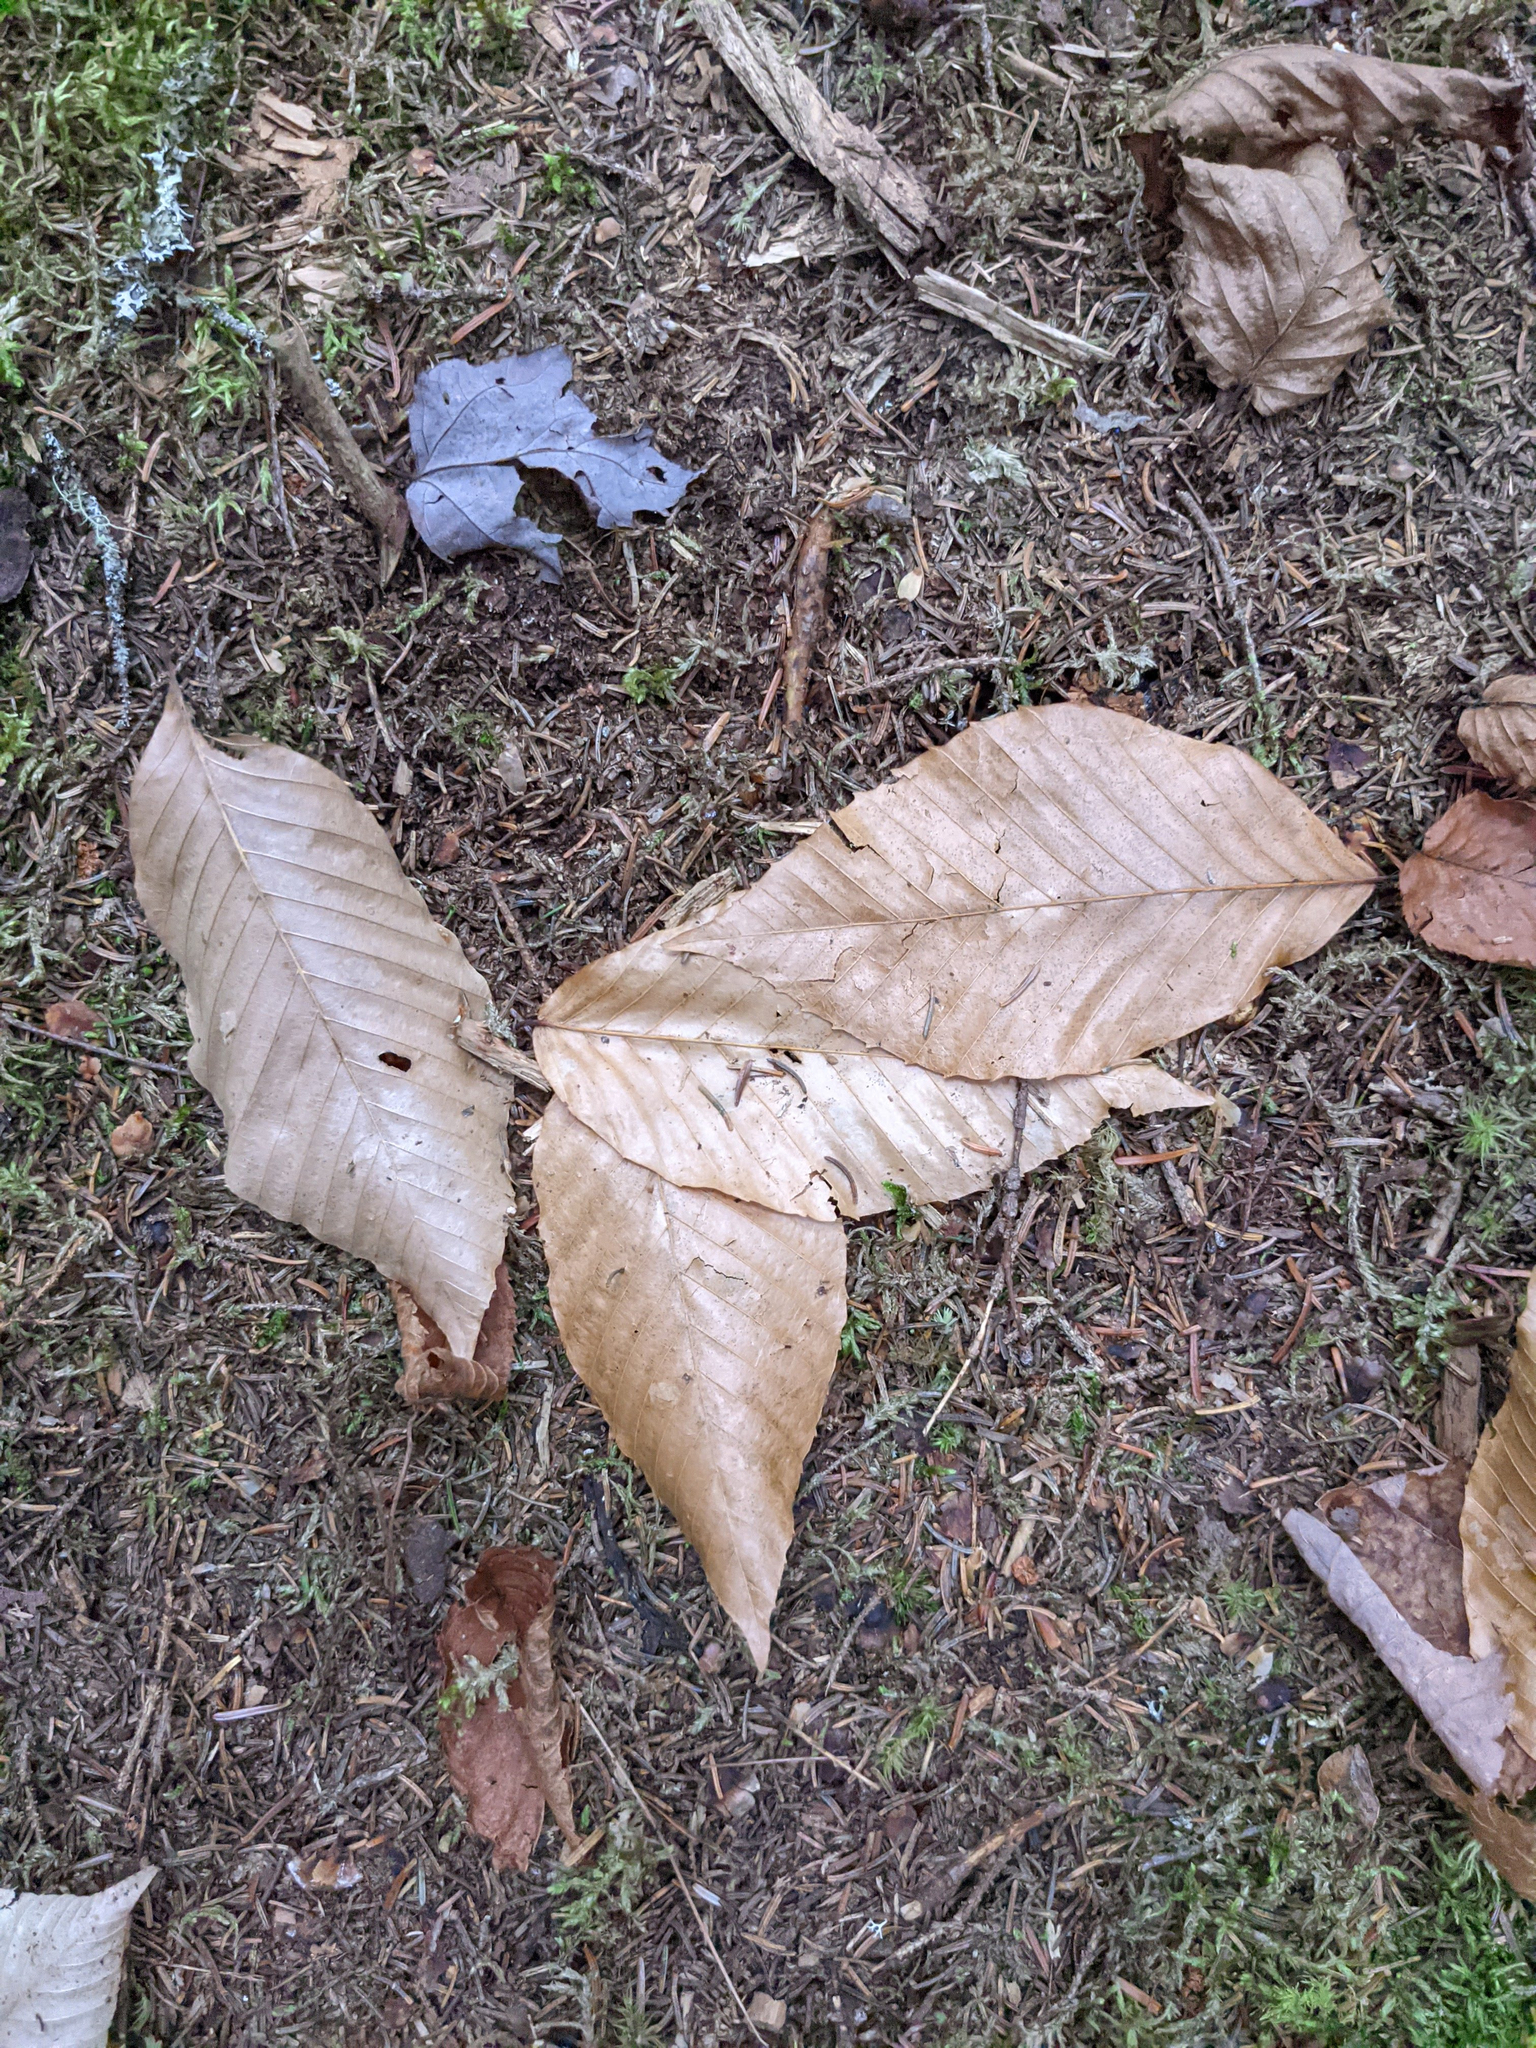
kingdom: Plantae
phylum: Tracheophyta
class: Magnoliopsida
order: Fagales
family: Fagaceae
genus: Fagus
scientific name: Fagus grandifolia
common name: American beech
